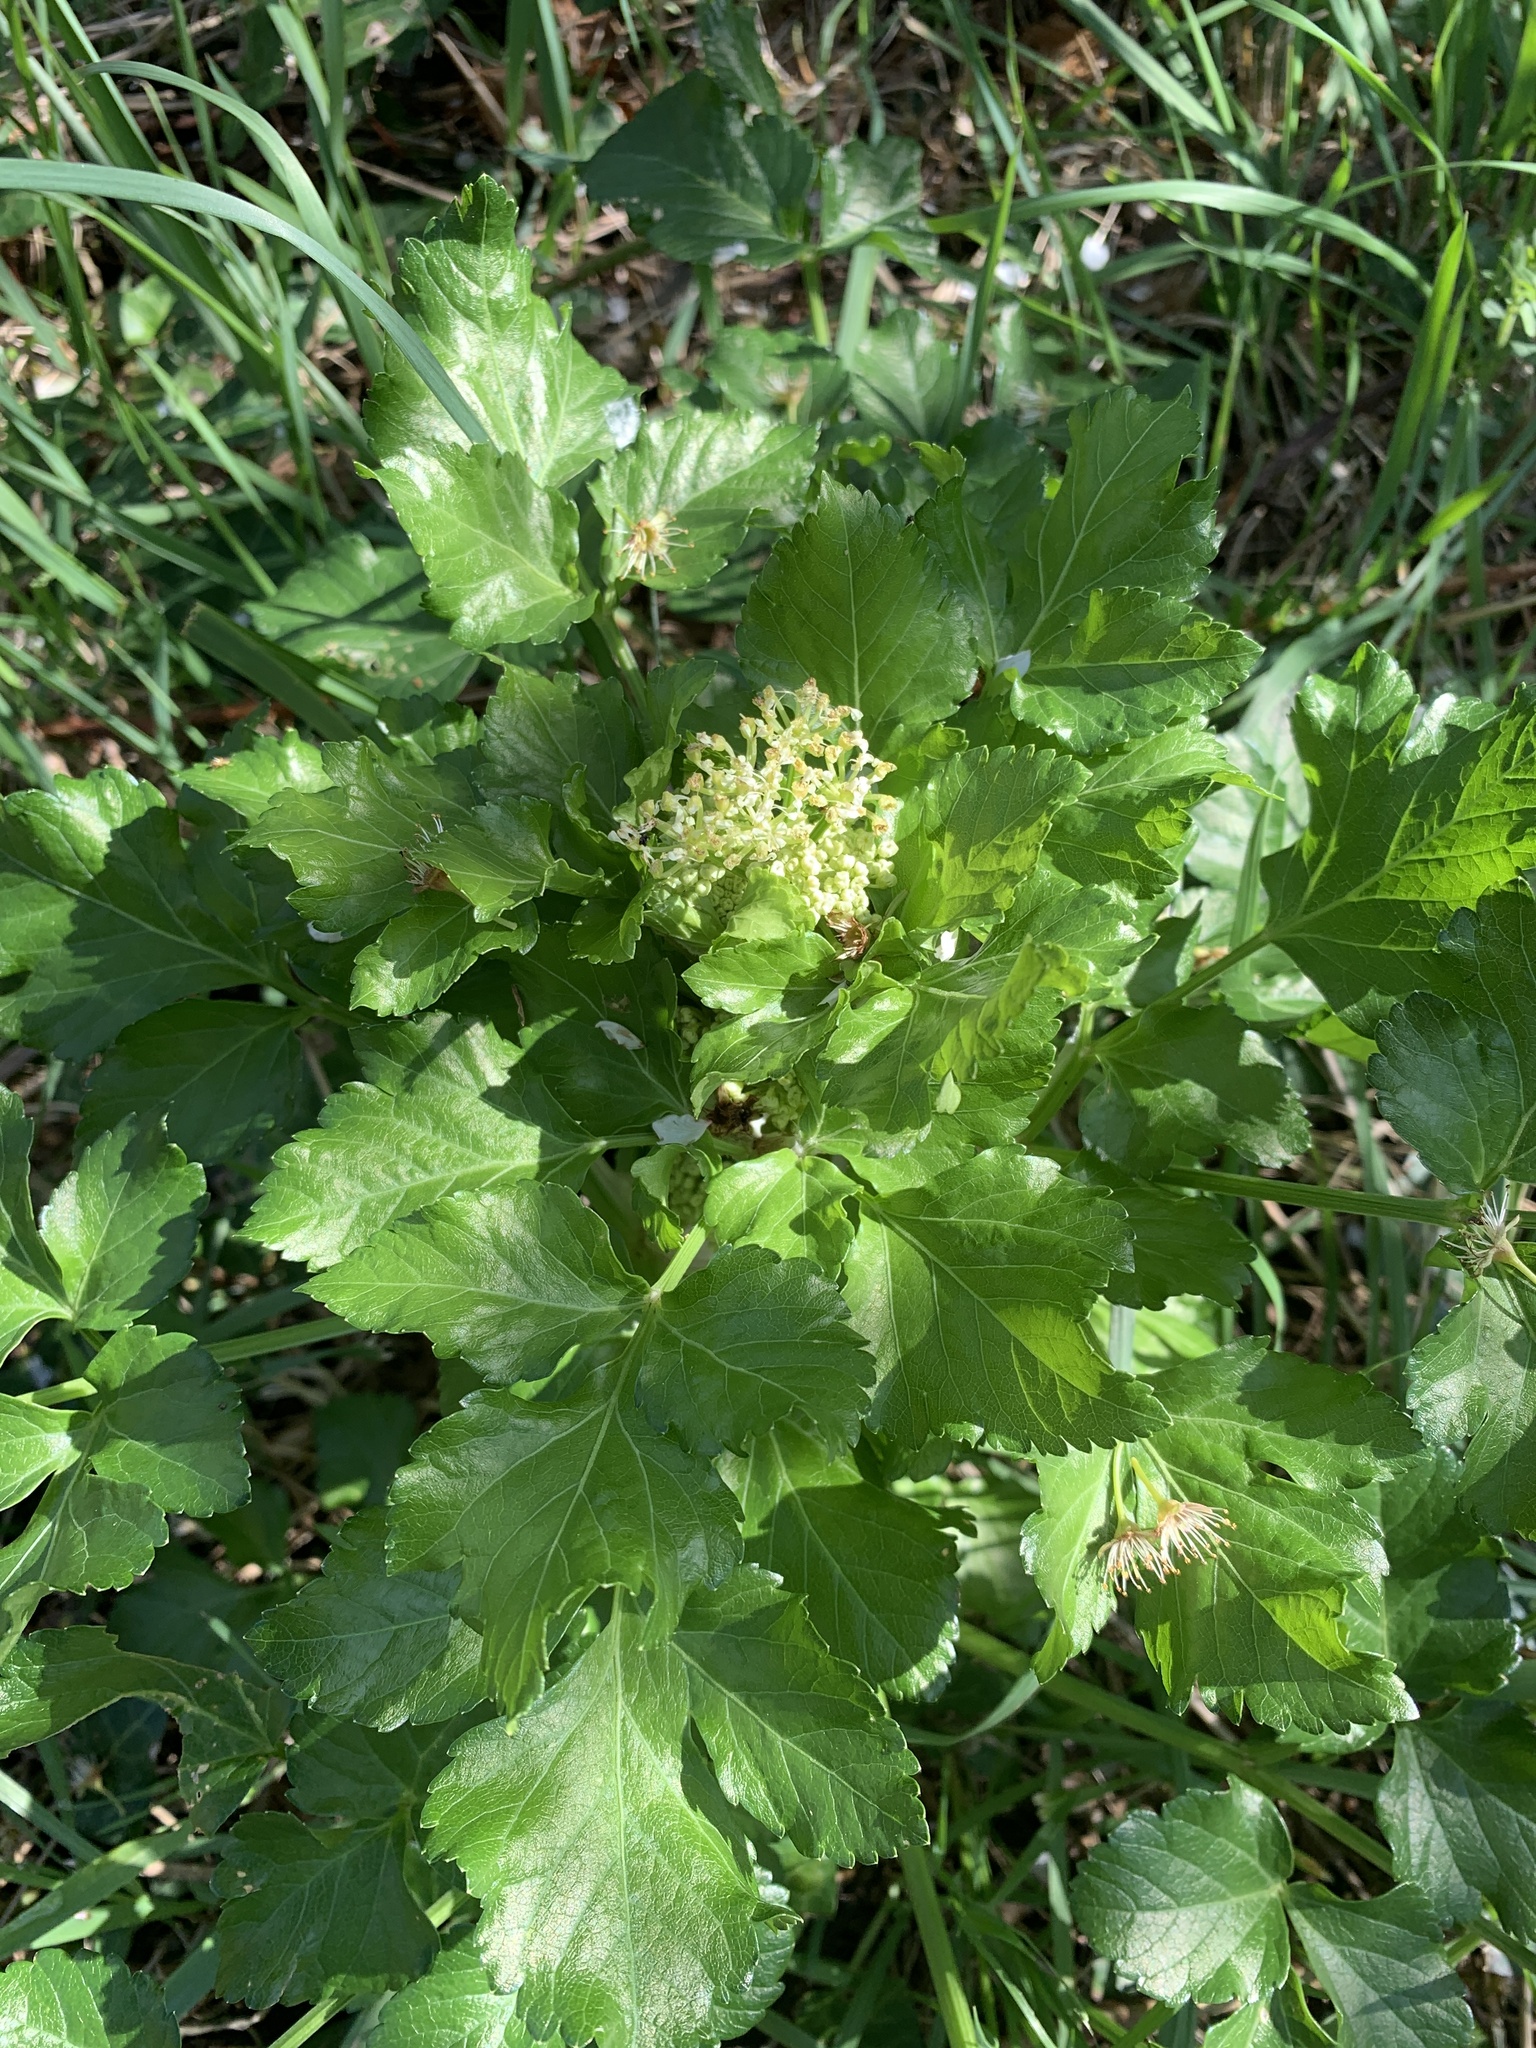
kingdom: Plantae
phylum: Tracheophyta
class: Magnoliopsida
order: Apiales
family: Apiaceae
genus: Smyrnium
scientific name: Smyrnium olusatrum
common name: Alexanders
